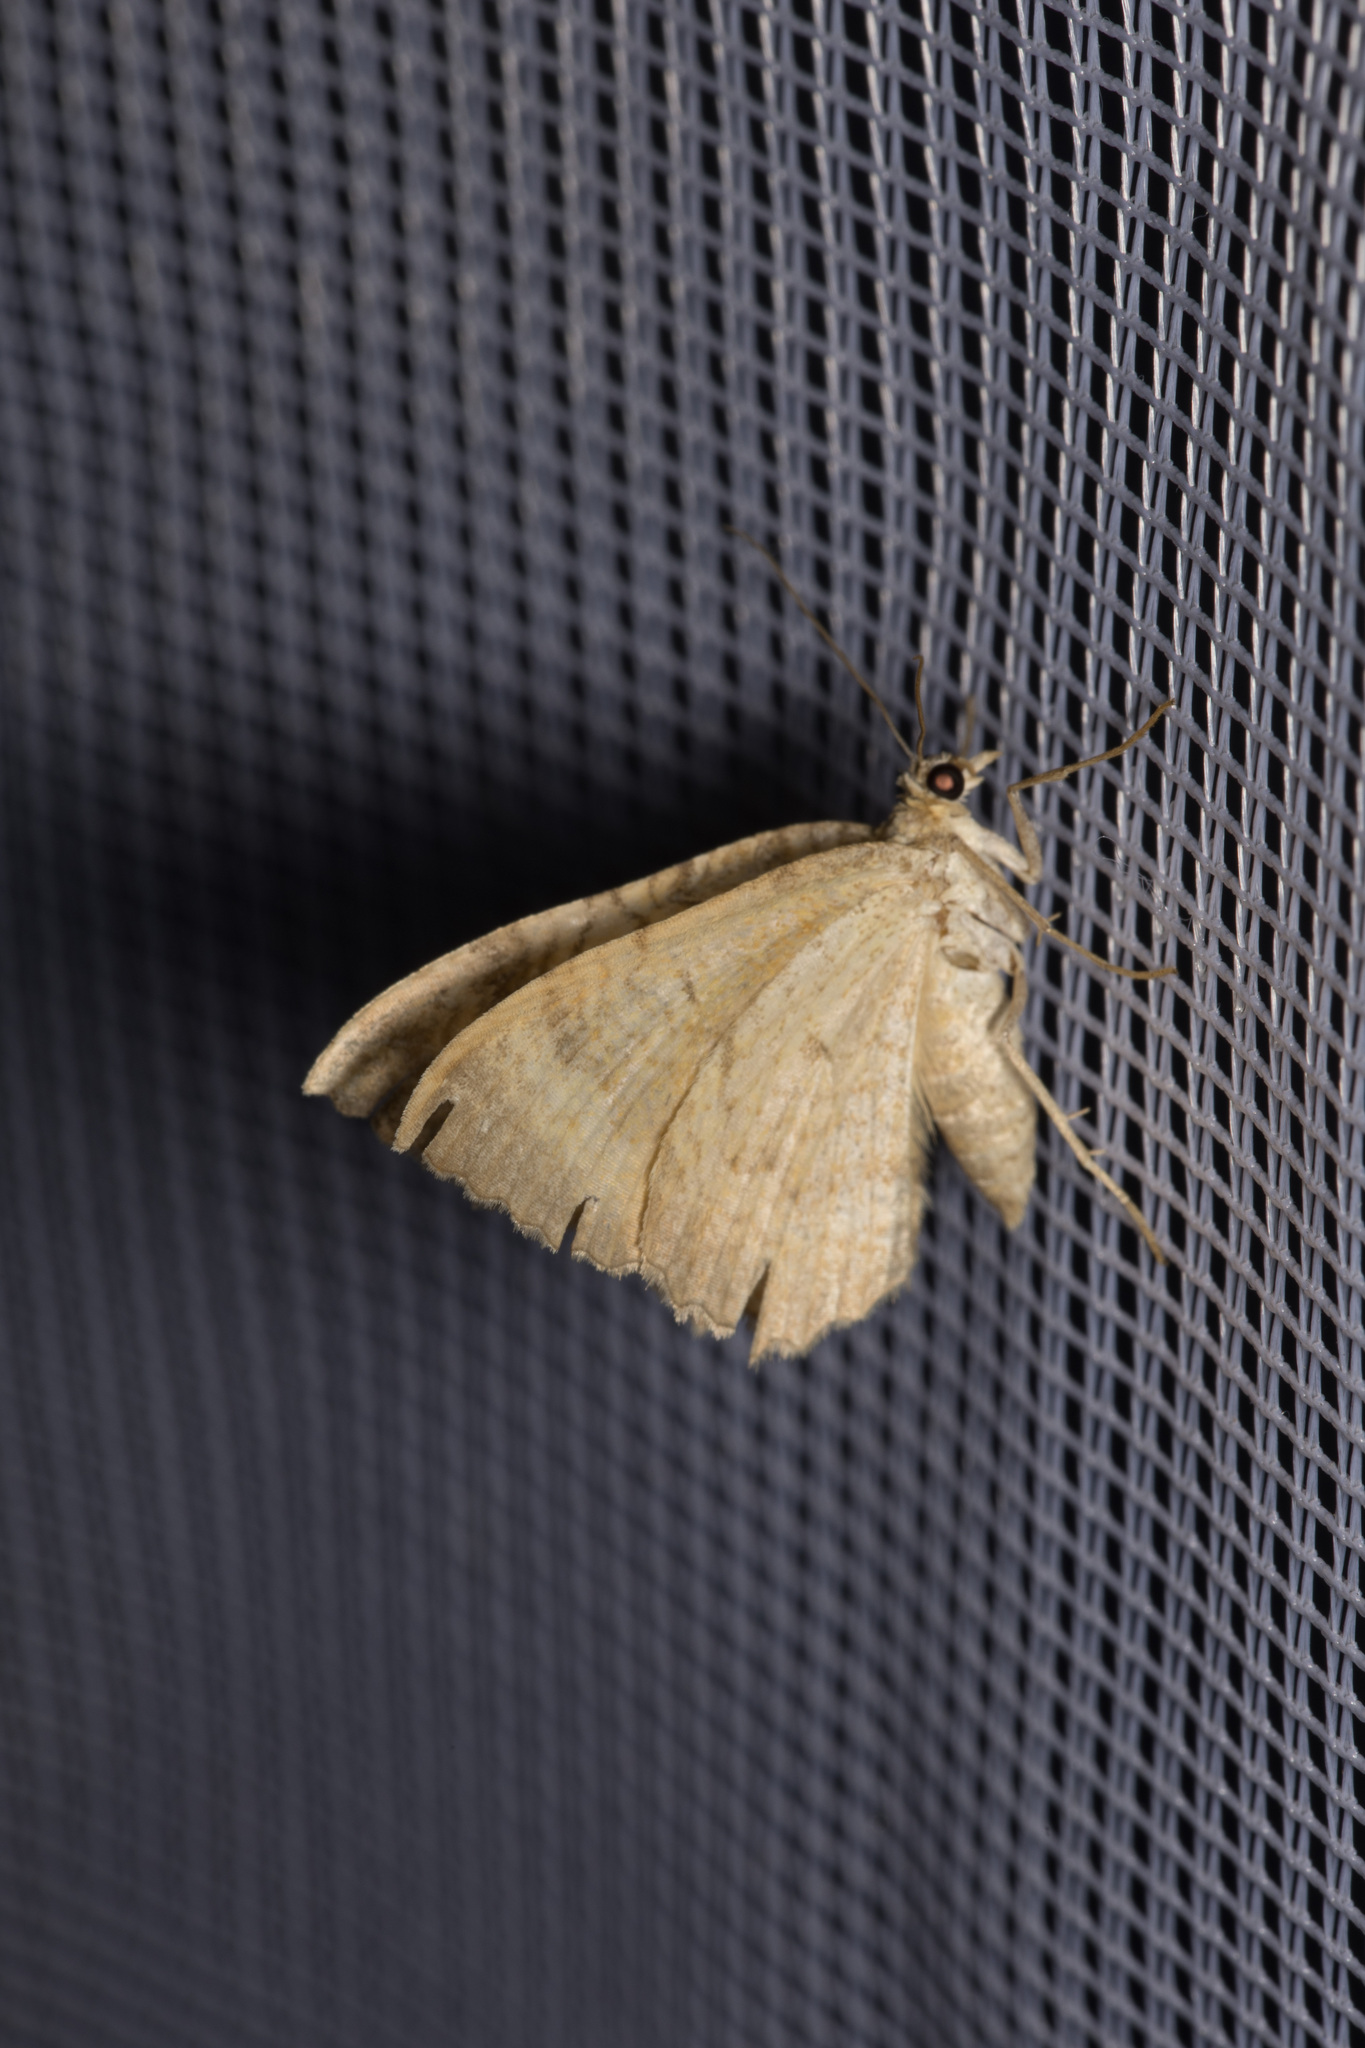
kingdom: Animalia
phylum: Arthropoda
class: Insecta
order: Lepidoptera
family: Geometridae
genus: Camptogramma
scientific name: Camptogramma bilineata
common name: Yellow shell
